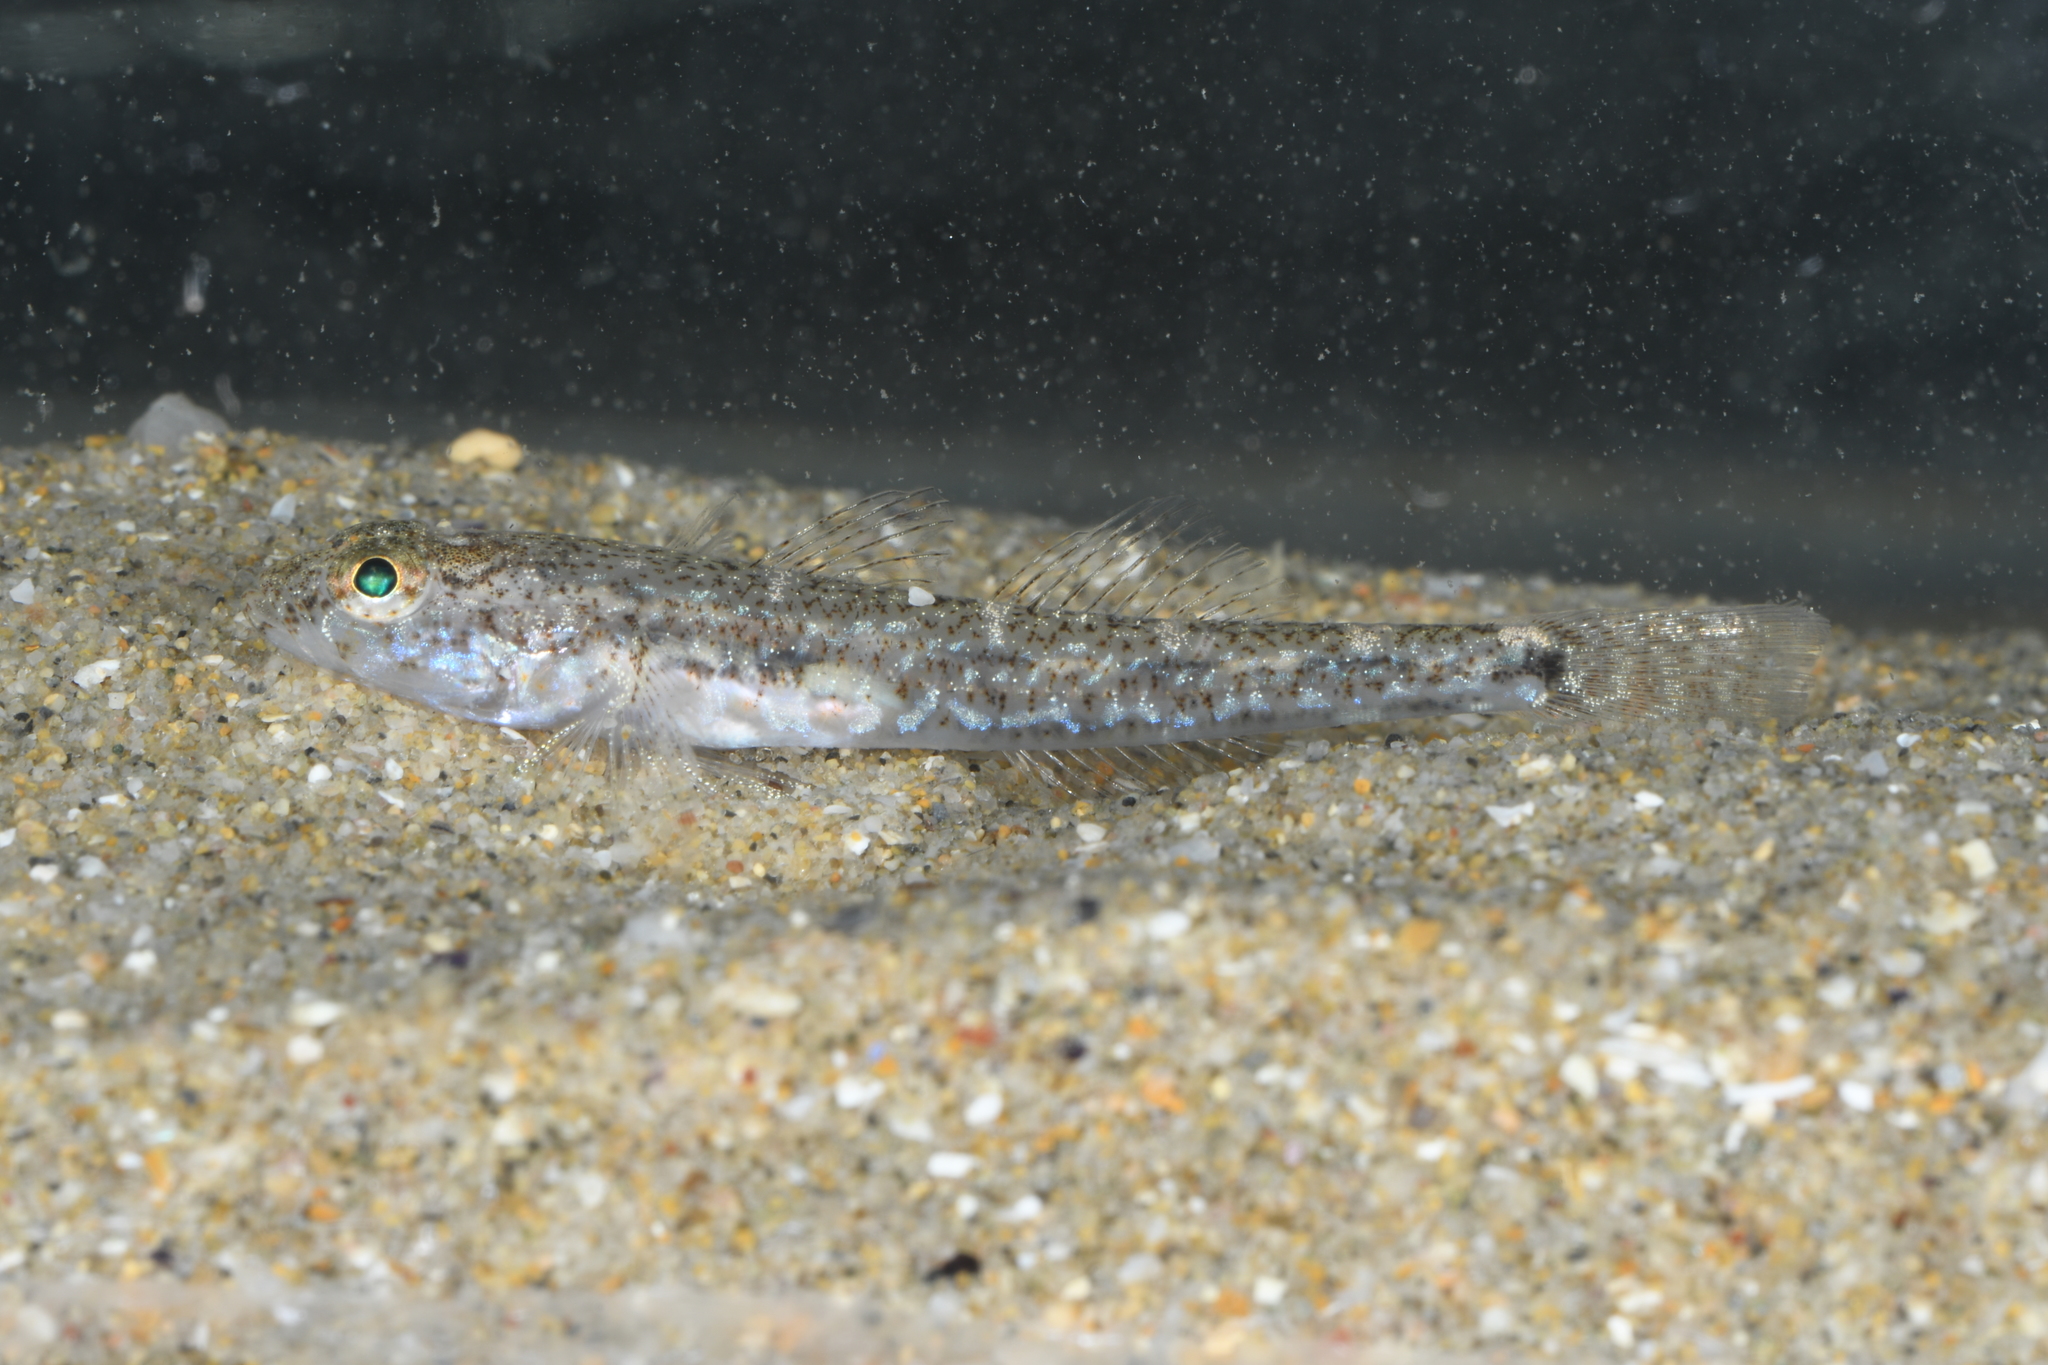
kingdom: Animalia
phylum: Chordata
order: Perciformes
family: Gobiidae
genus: Pomatoschistus
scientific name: Pomatoschistus marmoratus
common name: Marbled goby
